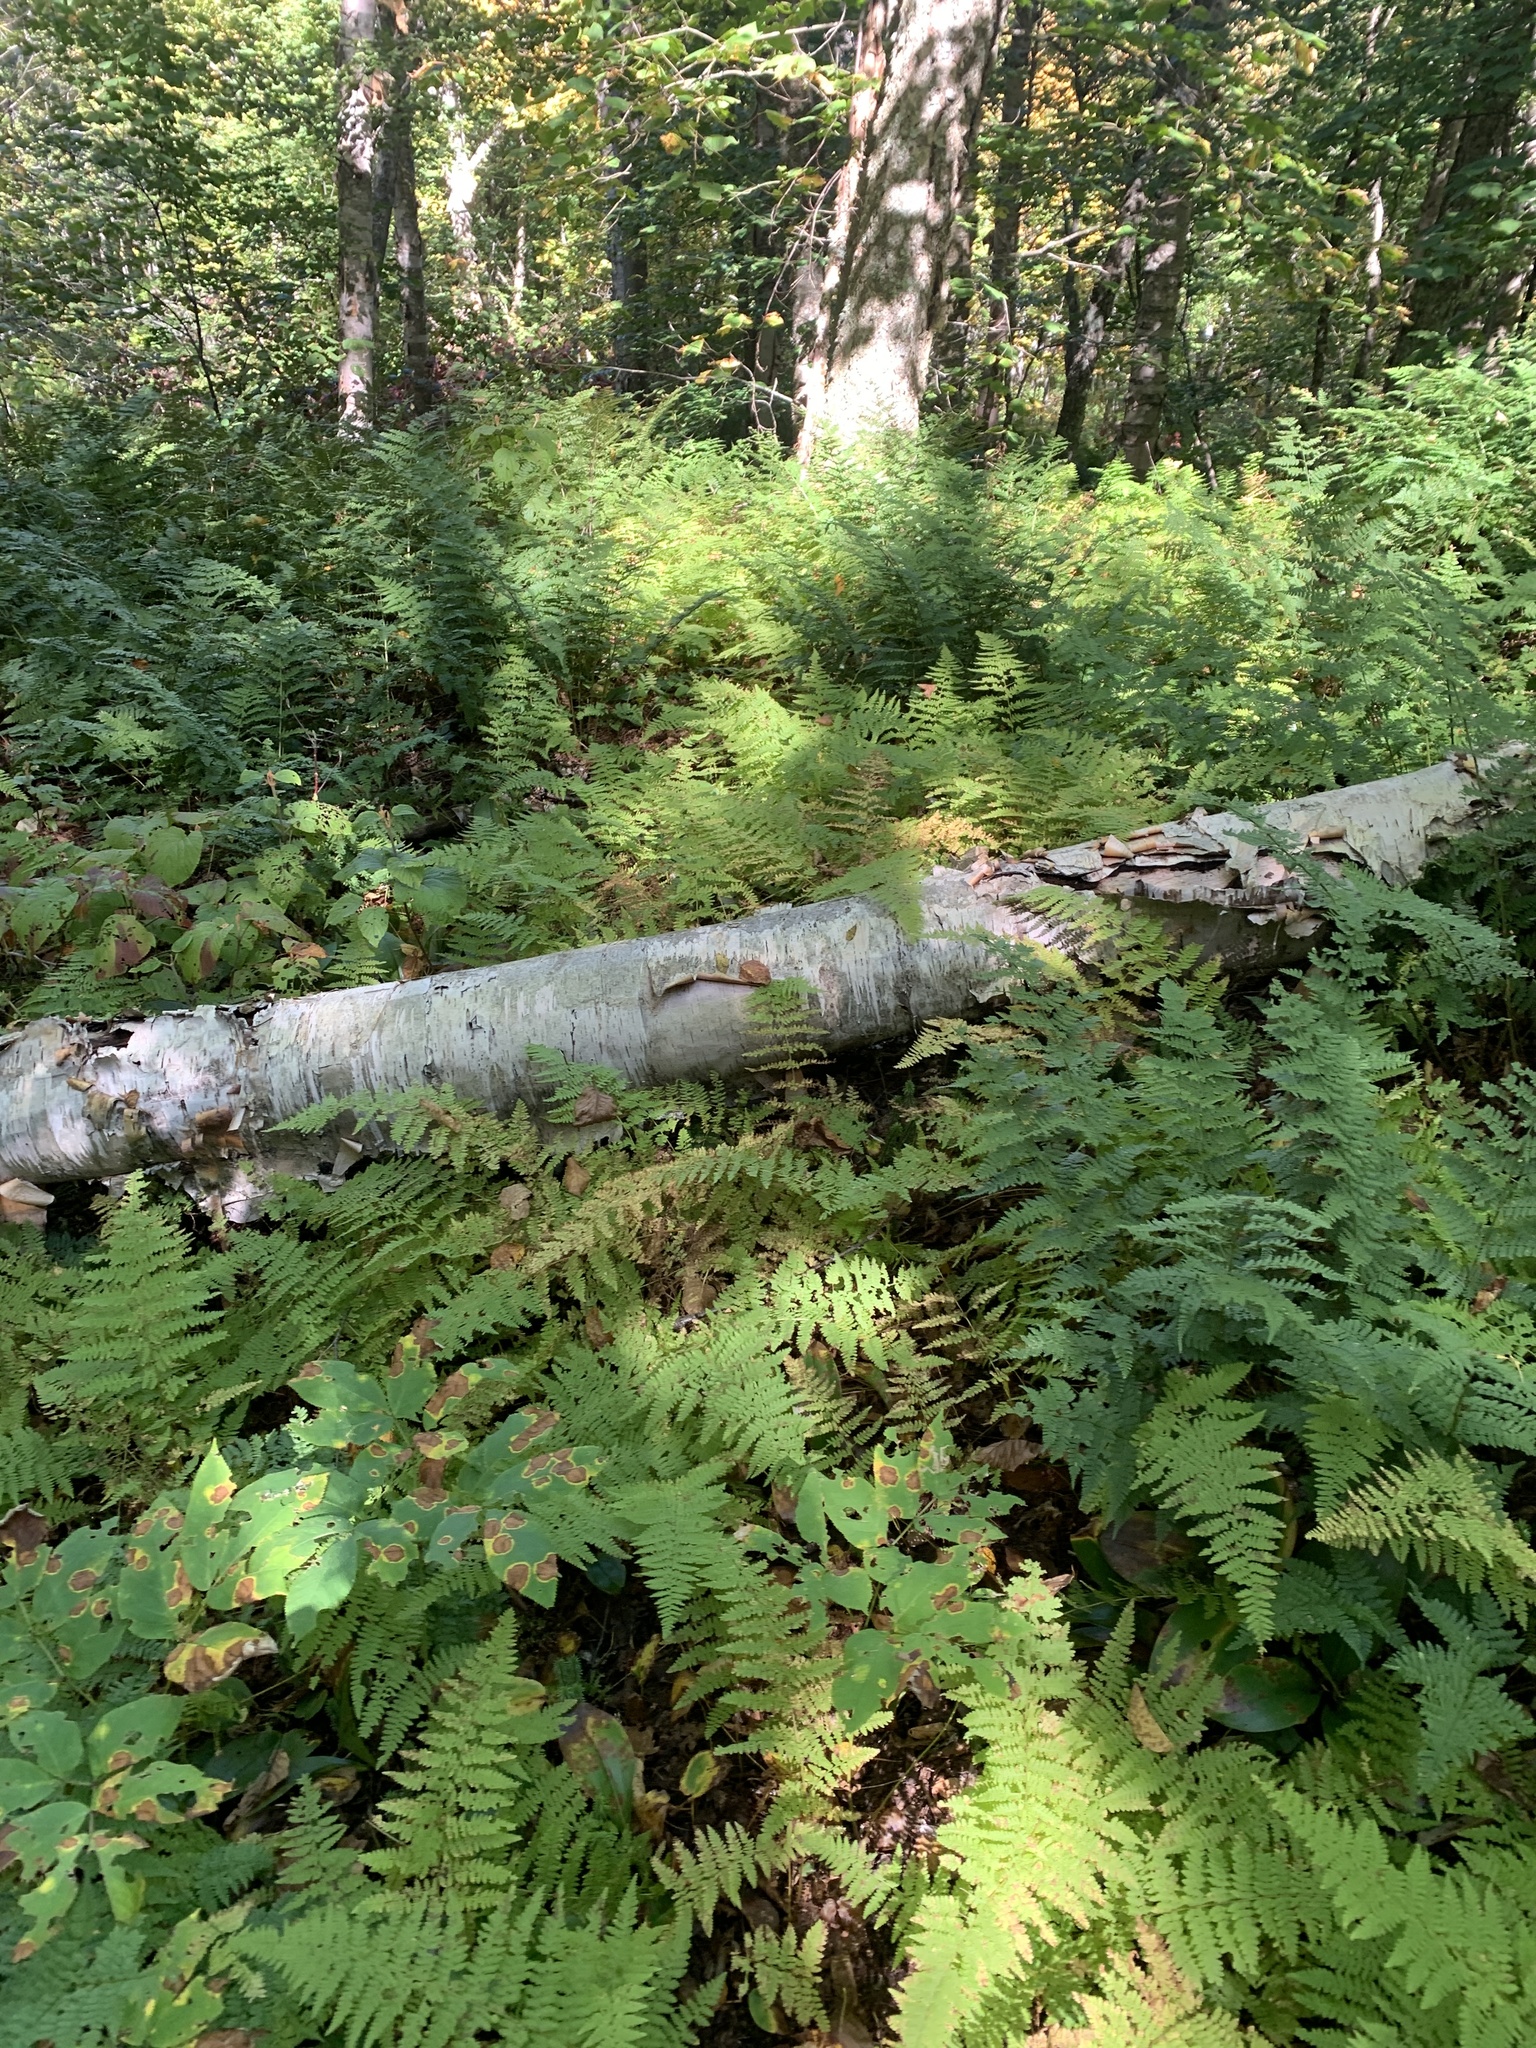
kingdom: Plantae
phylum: Tracheophyta
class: Polypodiopsida
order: Polypodiales
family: Dennstaedtiaceae
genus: Sitobolium
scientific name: Sitobolium punctilobum
